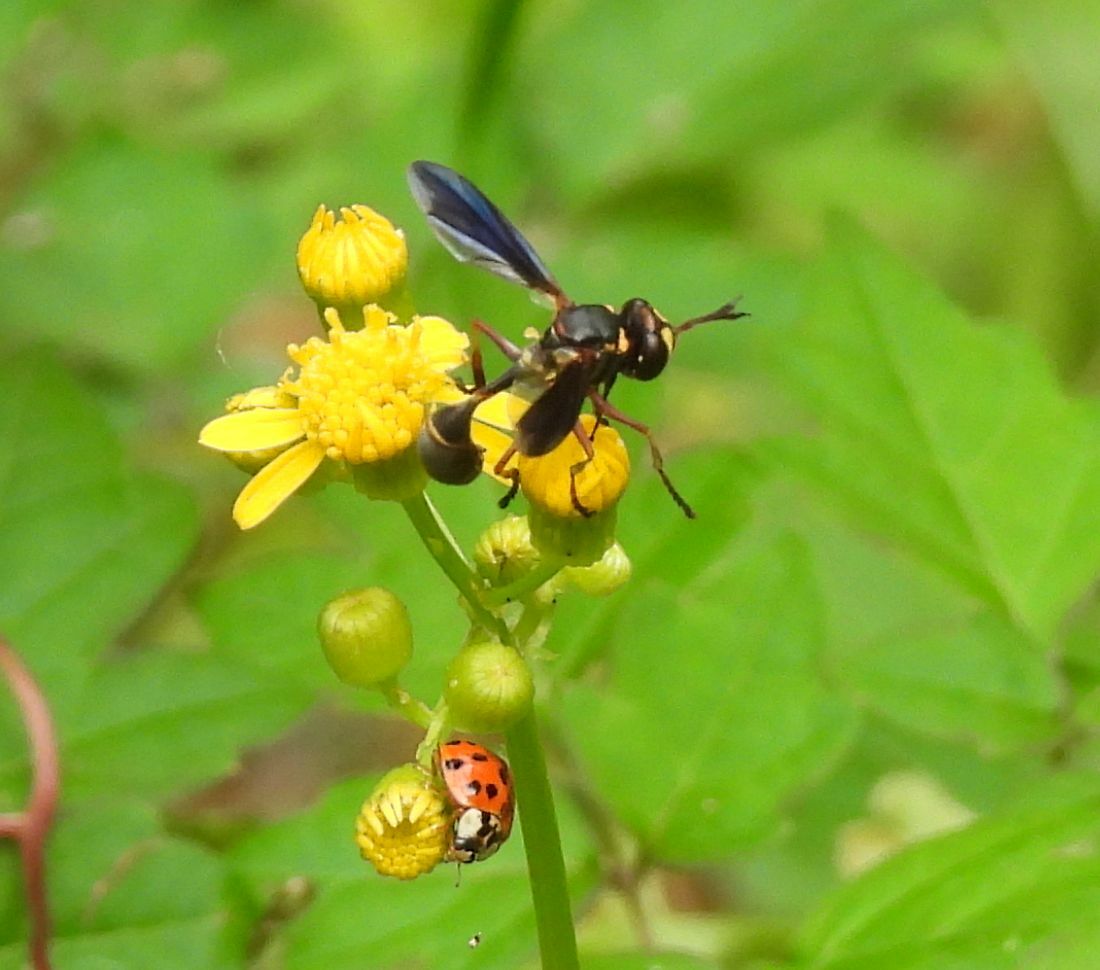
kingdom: Animalia
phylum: Arthropoda
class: Insecta
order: Coleoptera
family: Coccinellidae
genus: Harmonia
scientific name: Harmonia axyridis
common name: Harlequin ladybird
